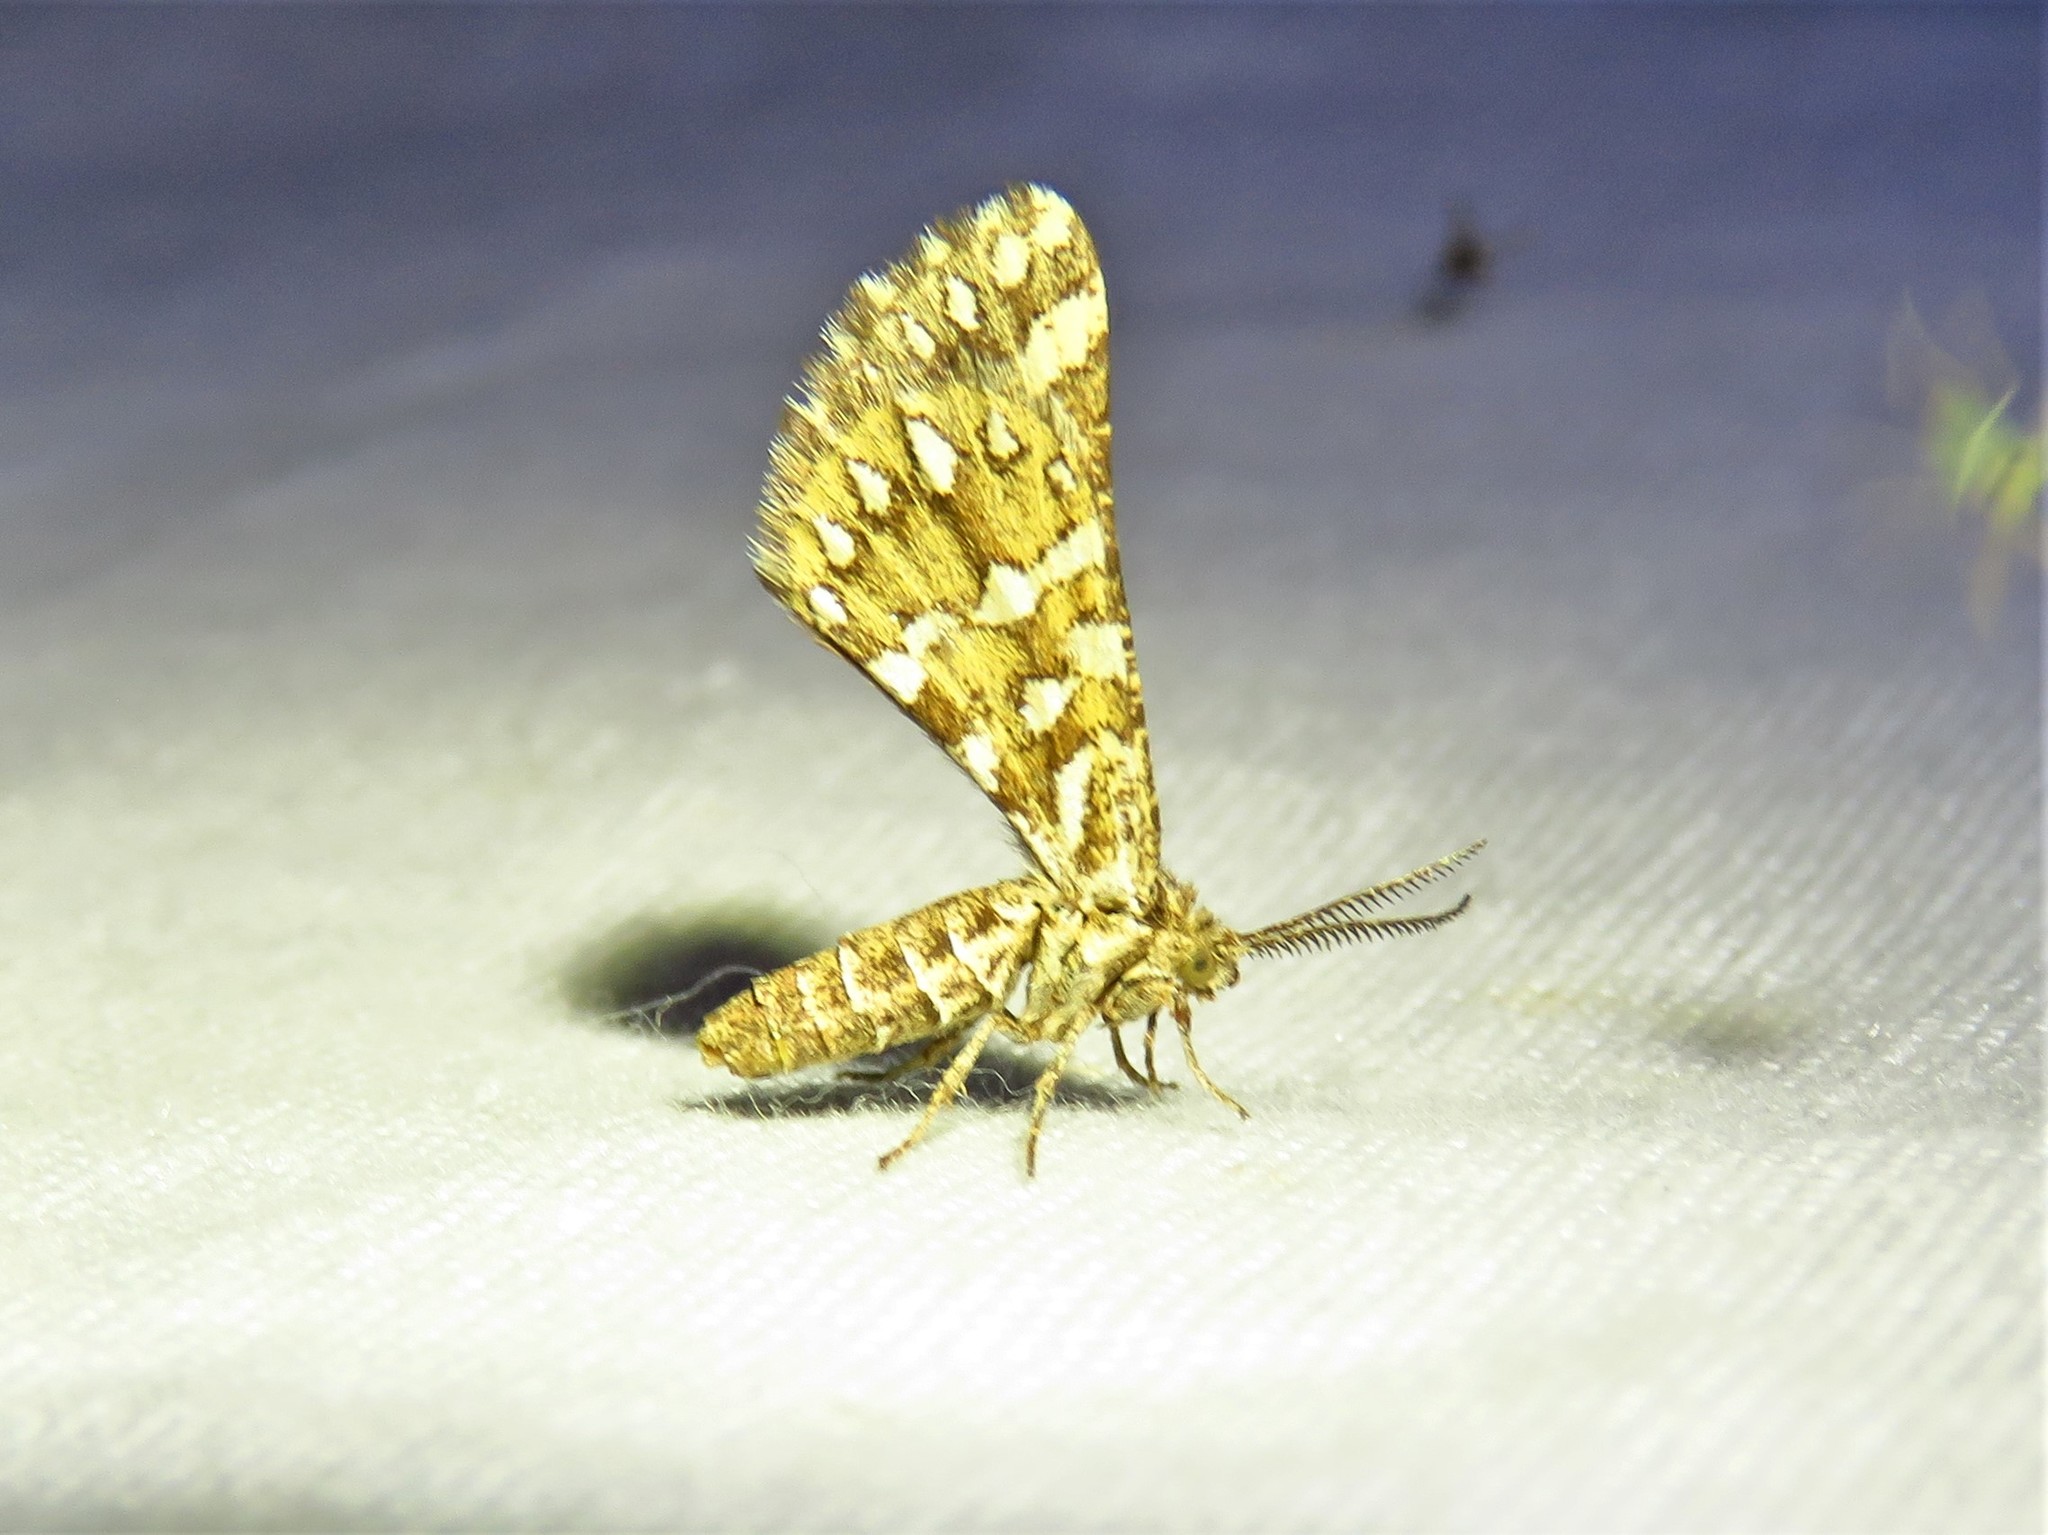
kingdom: Animalia
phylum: Arthropoda
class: Insecta
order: Lepidoptera
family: Geometridae
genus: Narraga
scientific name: Narraga fimetaria
